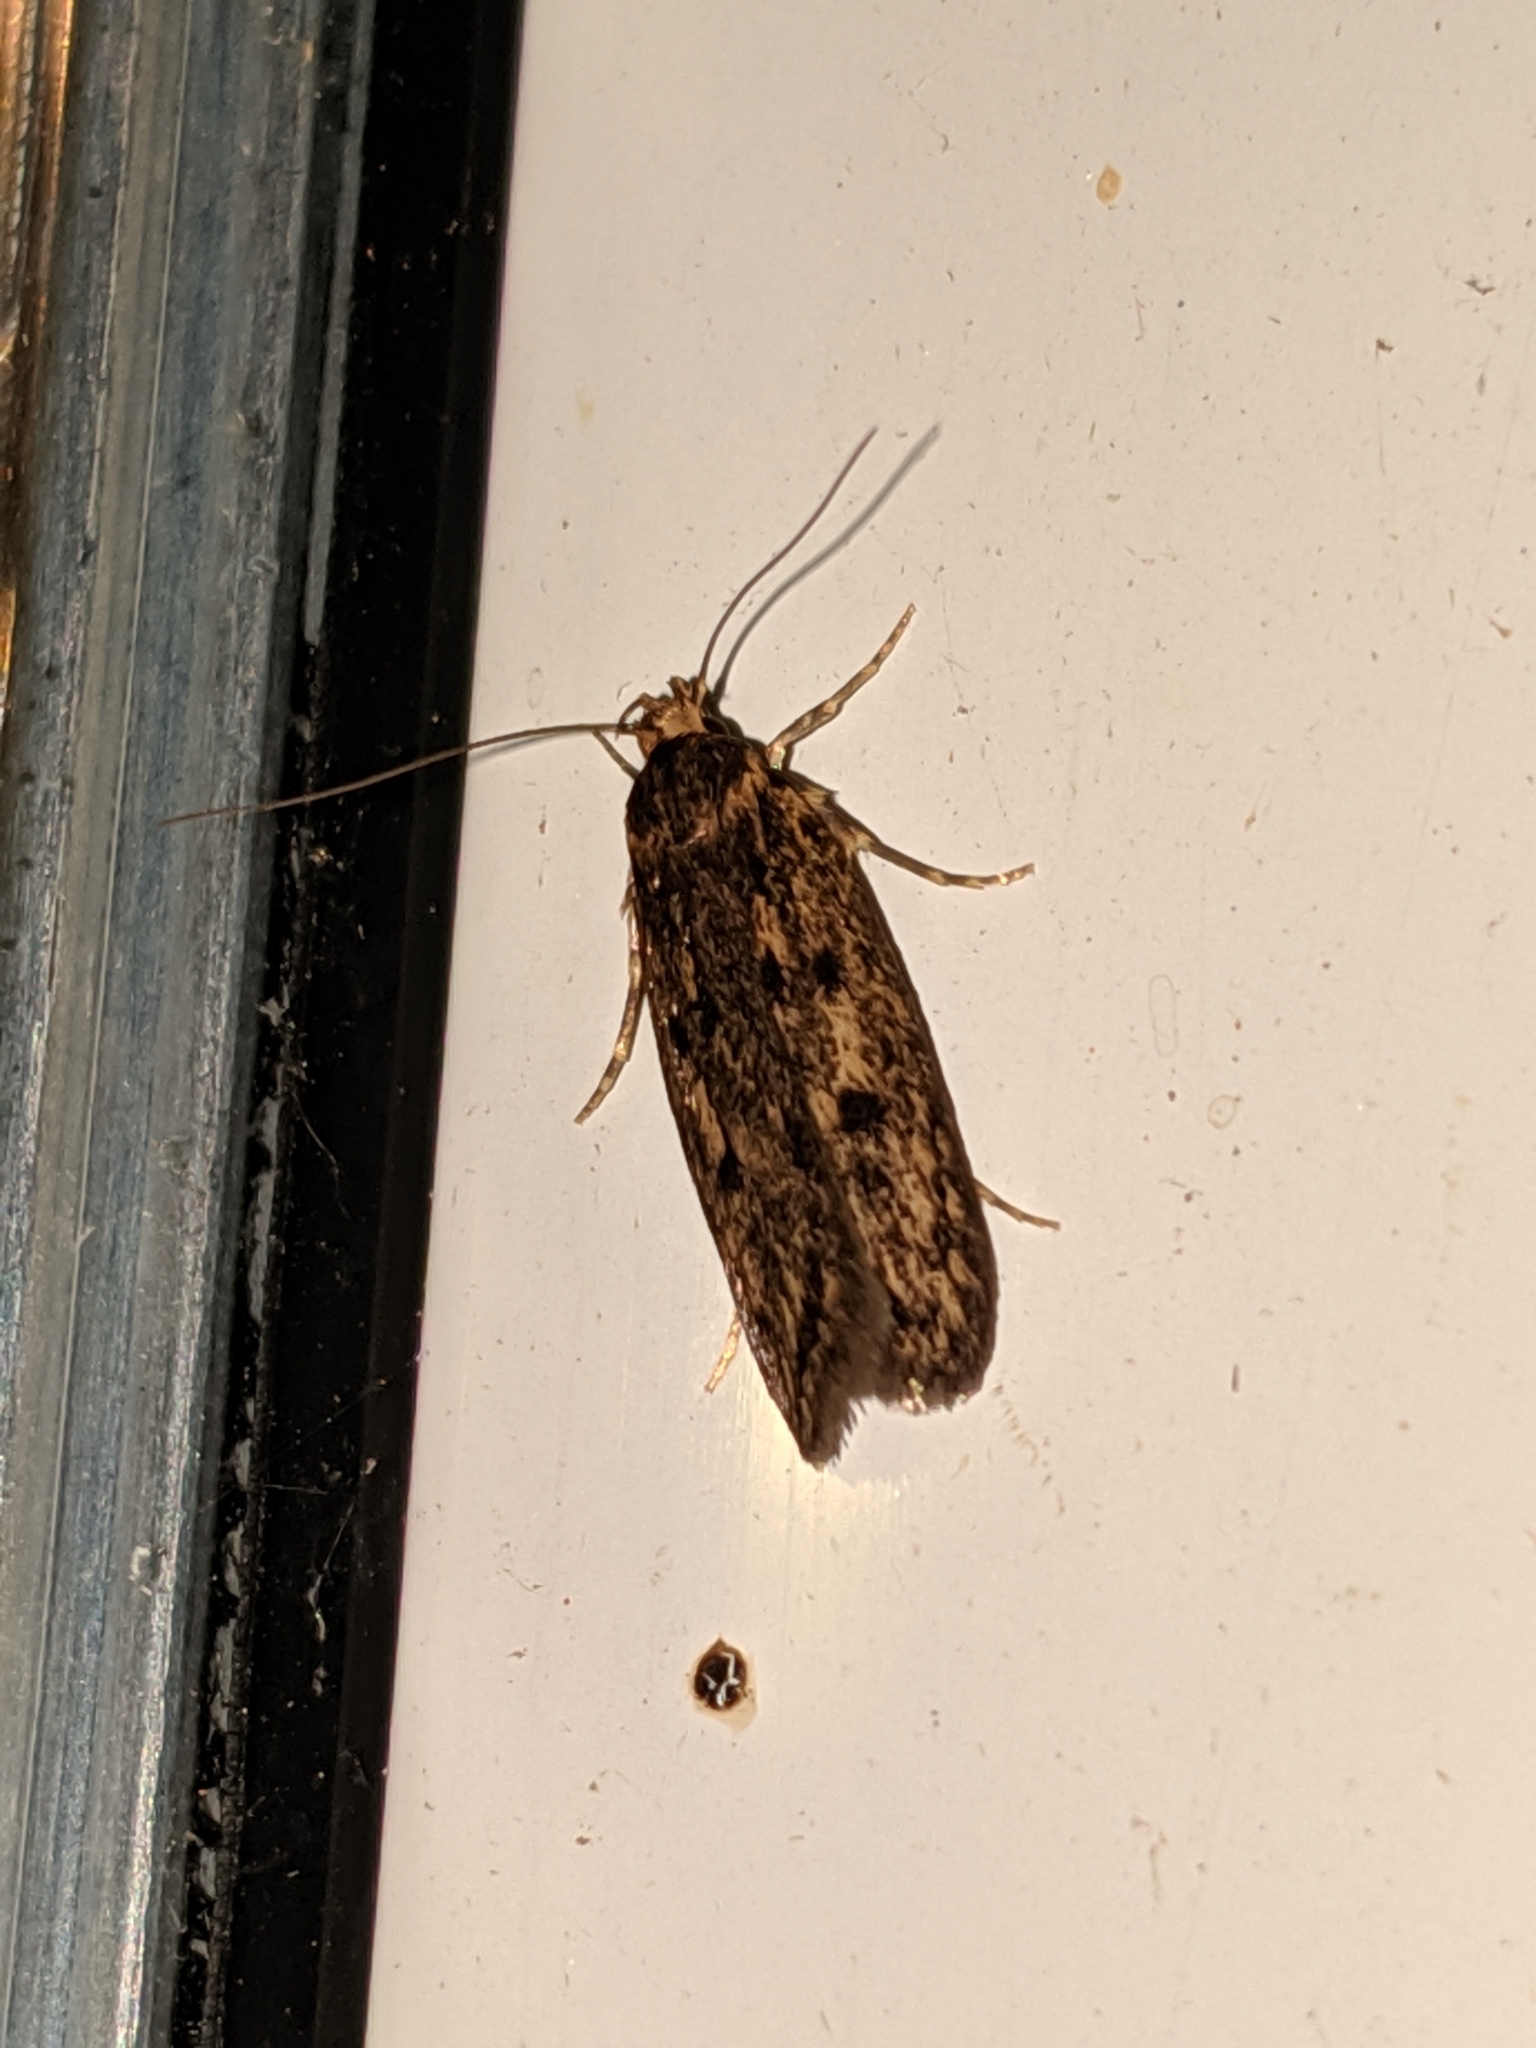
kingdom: Animalia
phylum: Arthropoda
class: Insecta
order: Lepidoptera
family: Oecophoridae
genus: Hofmannophila
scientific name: Hofmannophila pseudospretella
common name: Brown house moth
